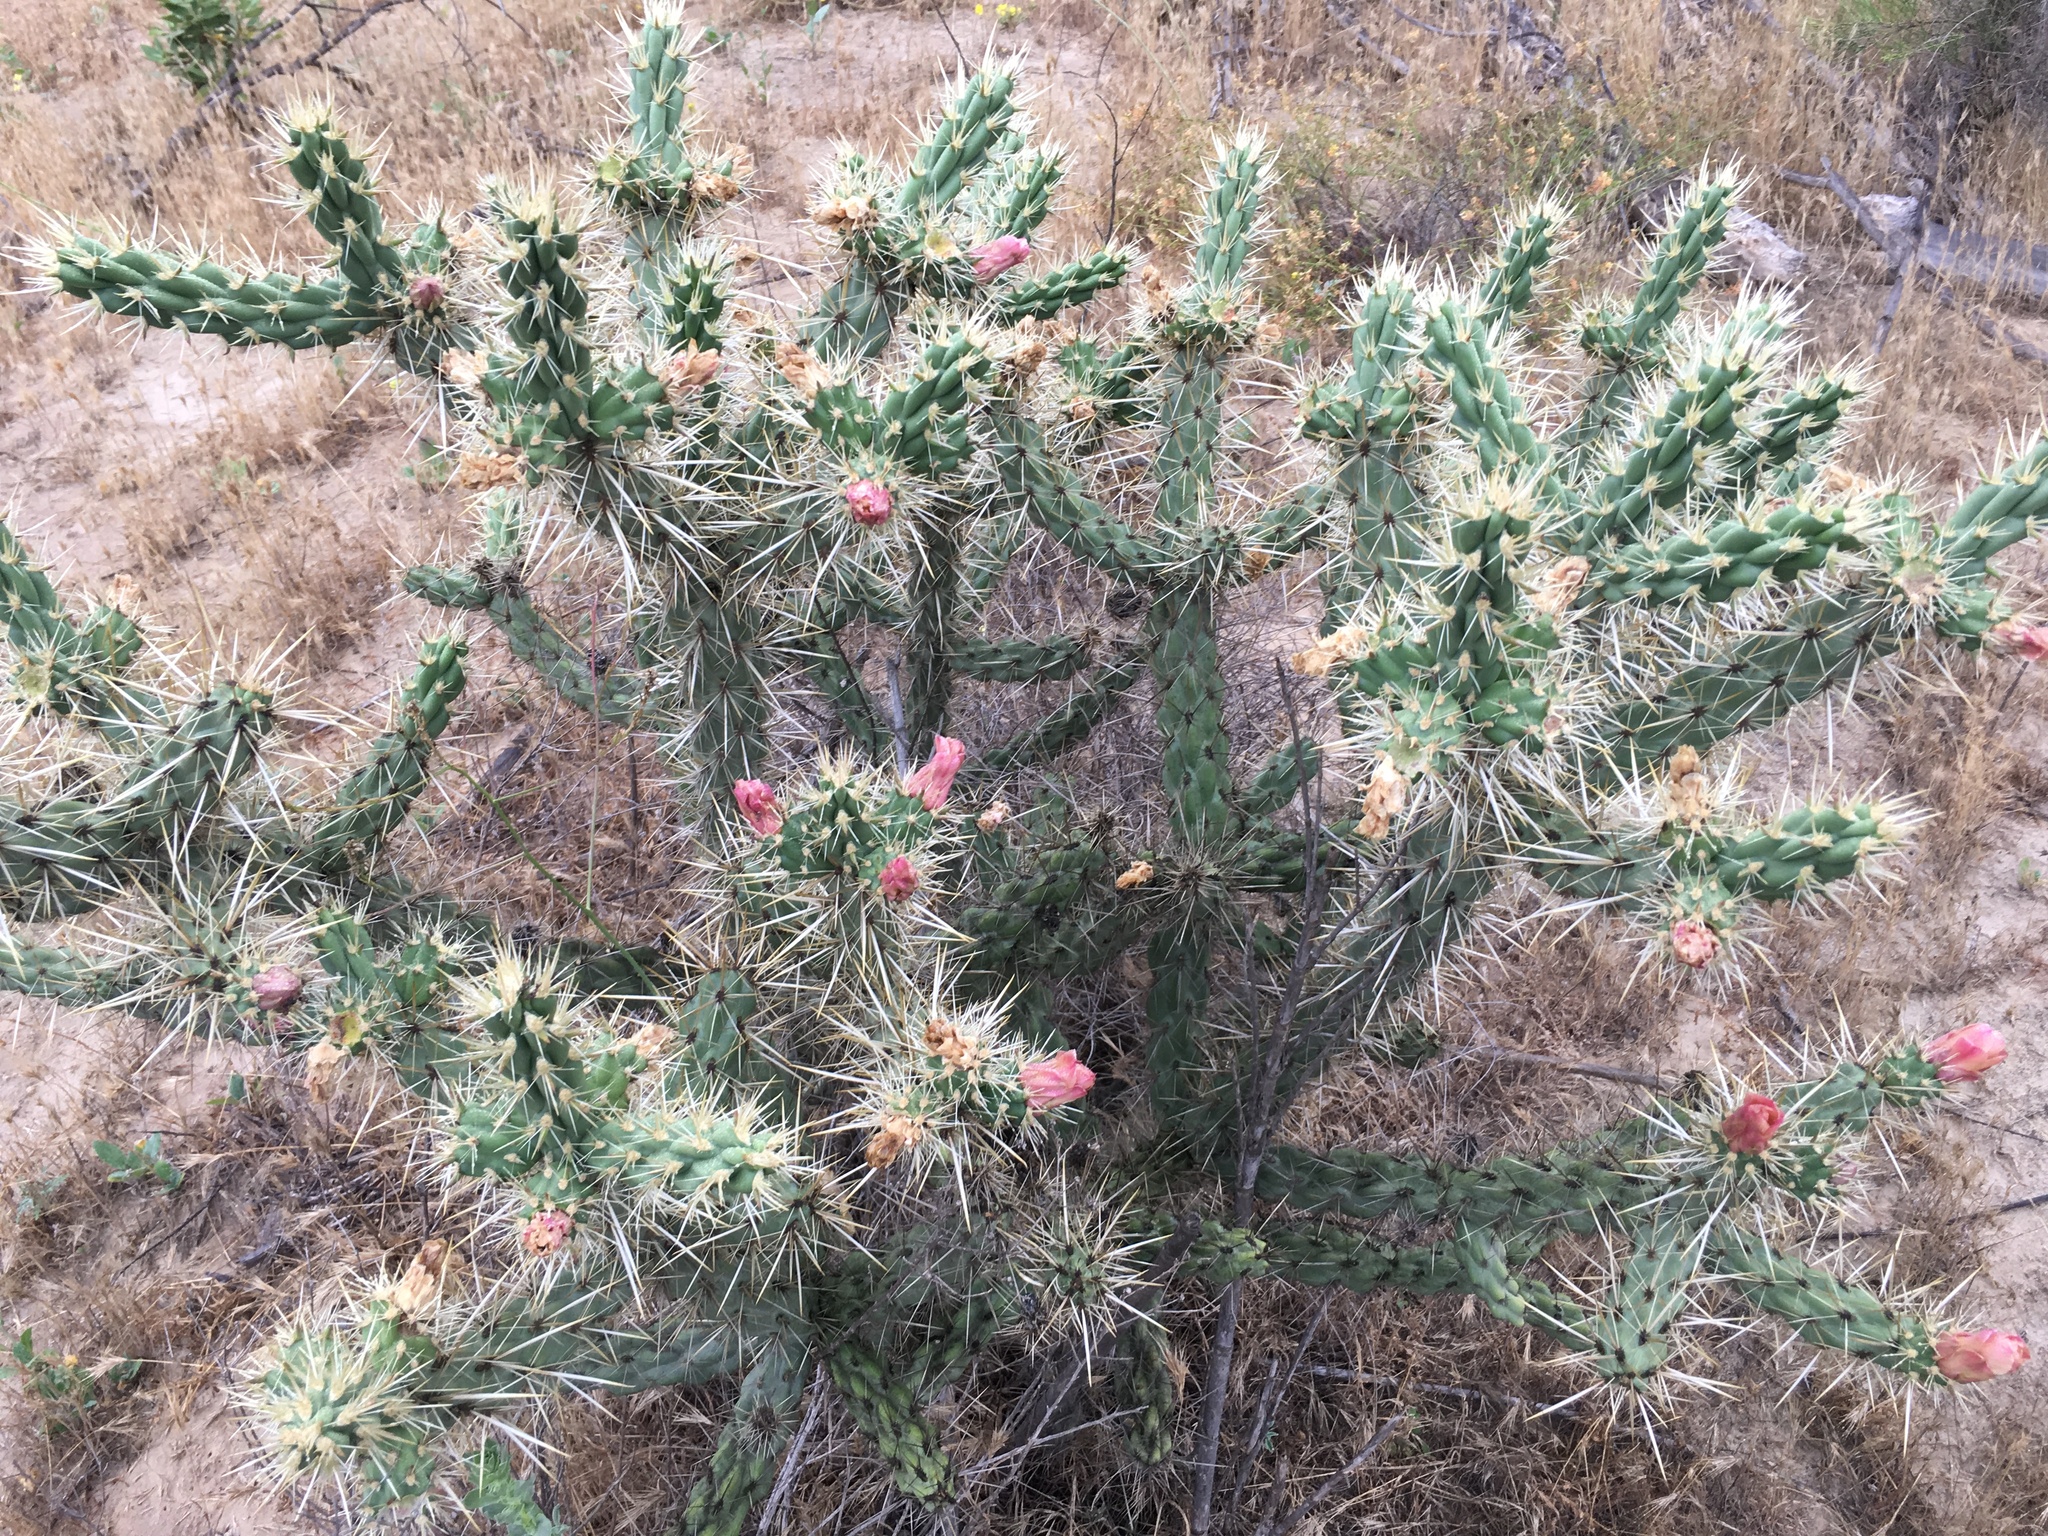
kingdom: Plantae
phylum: Tracheophyta
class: Magnoliopsida
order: Caryophyllales
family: Cactaceae
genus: Cylindropuntia
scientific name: Cylindropuntia bernardina
